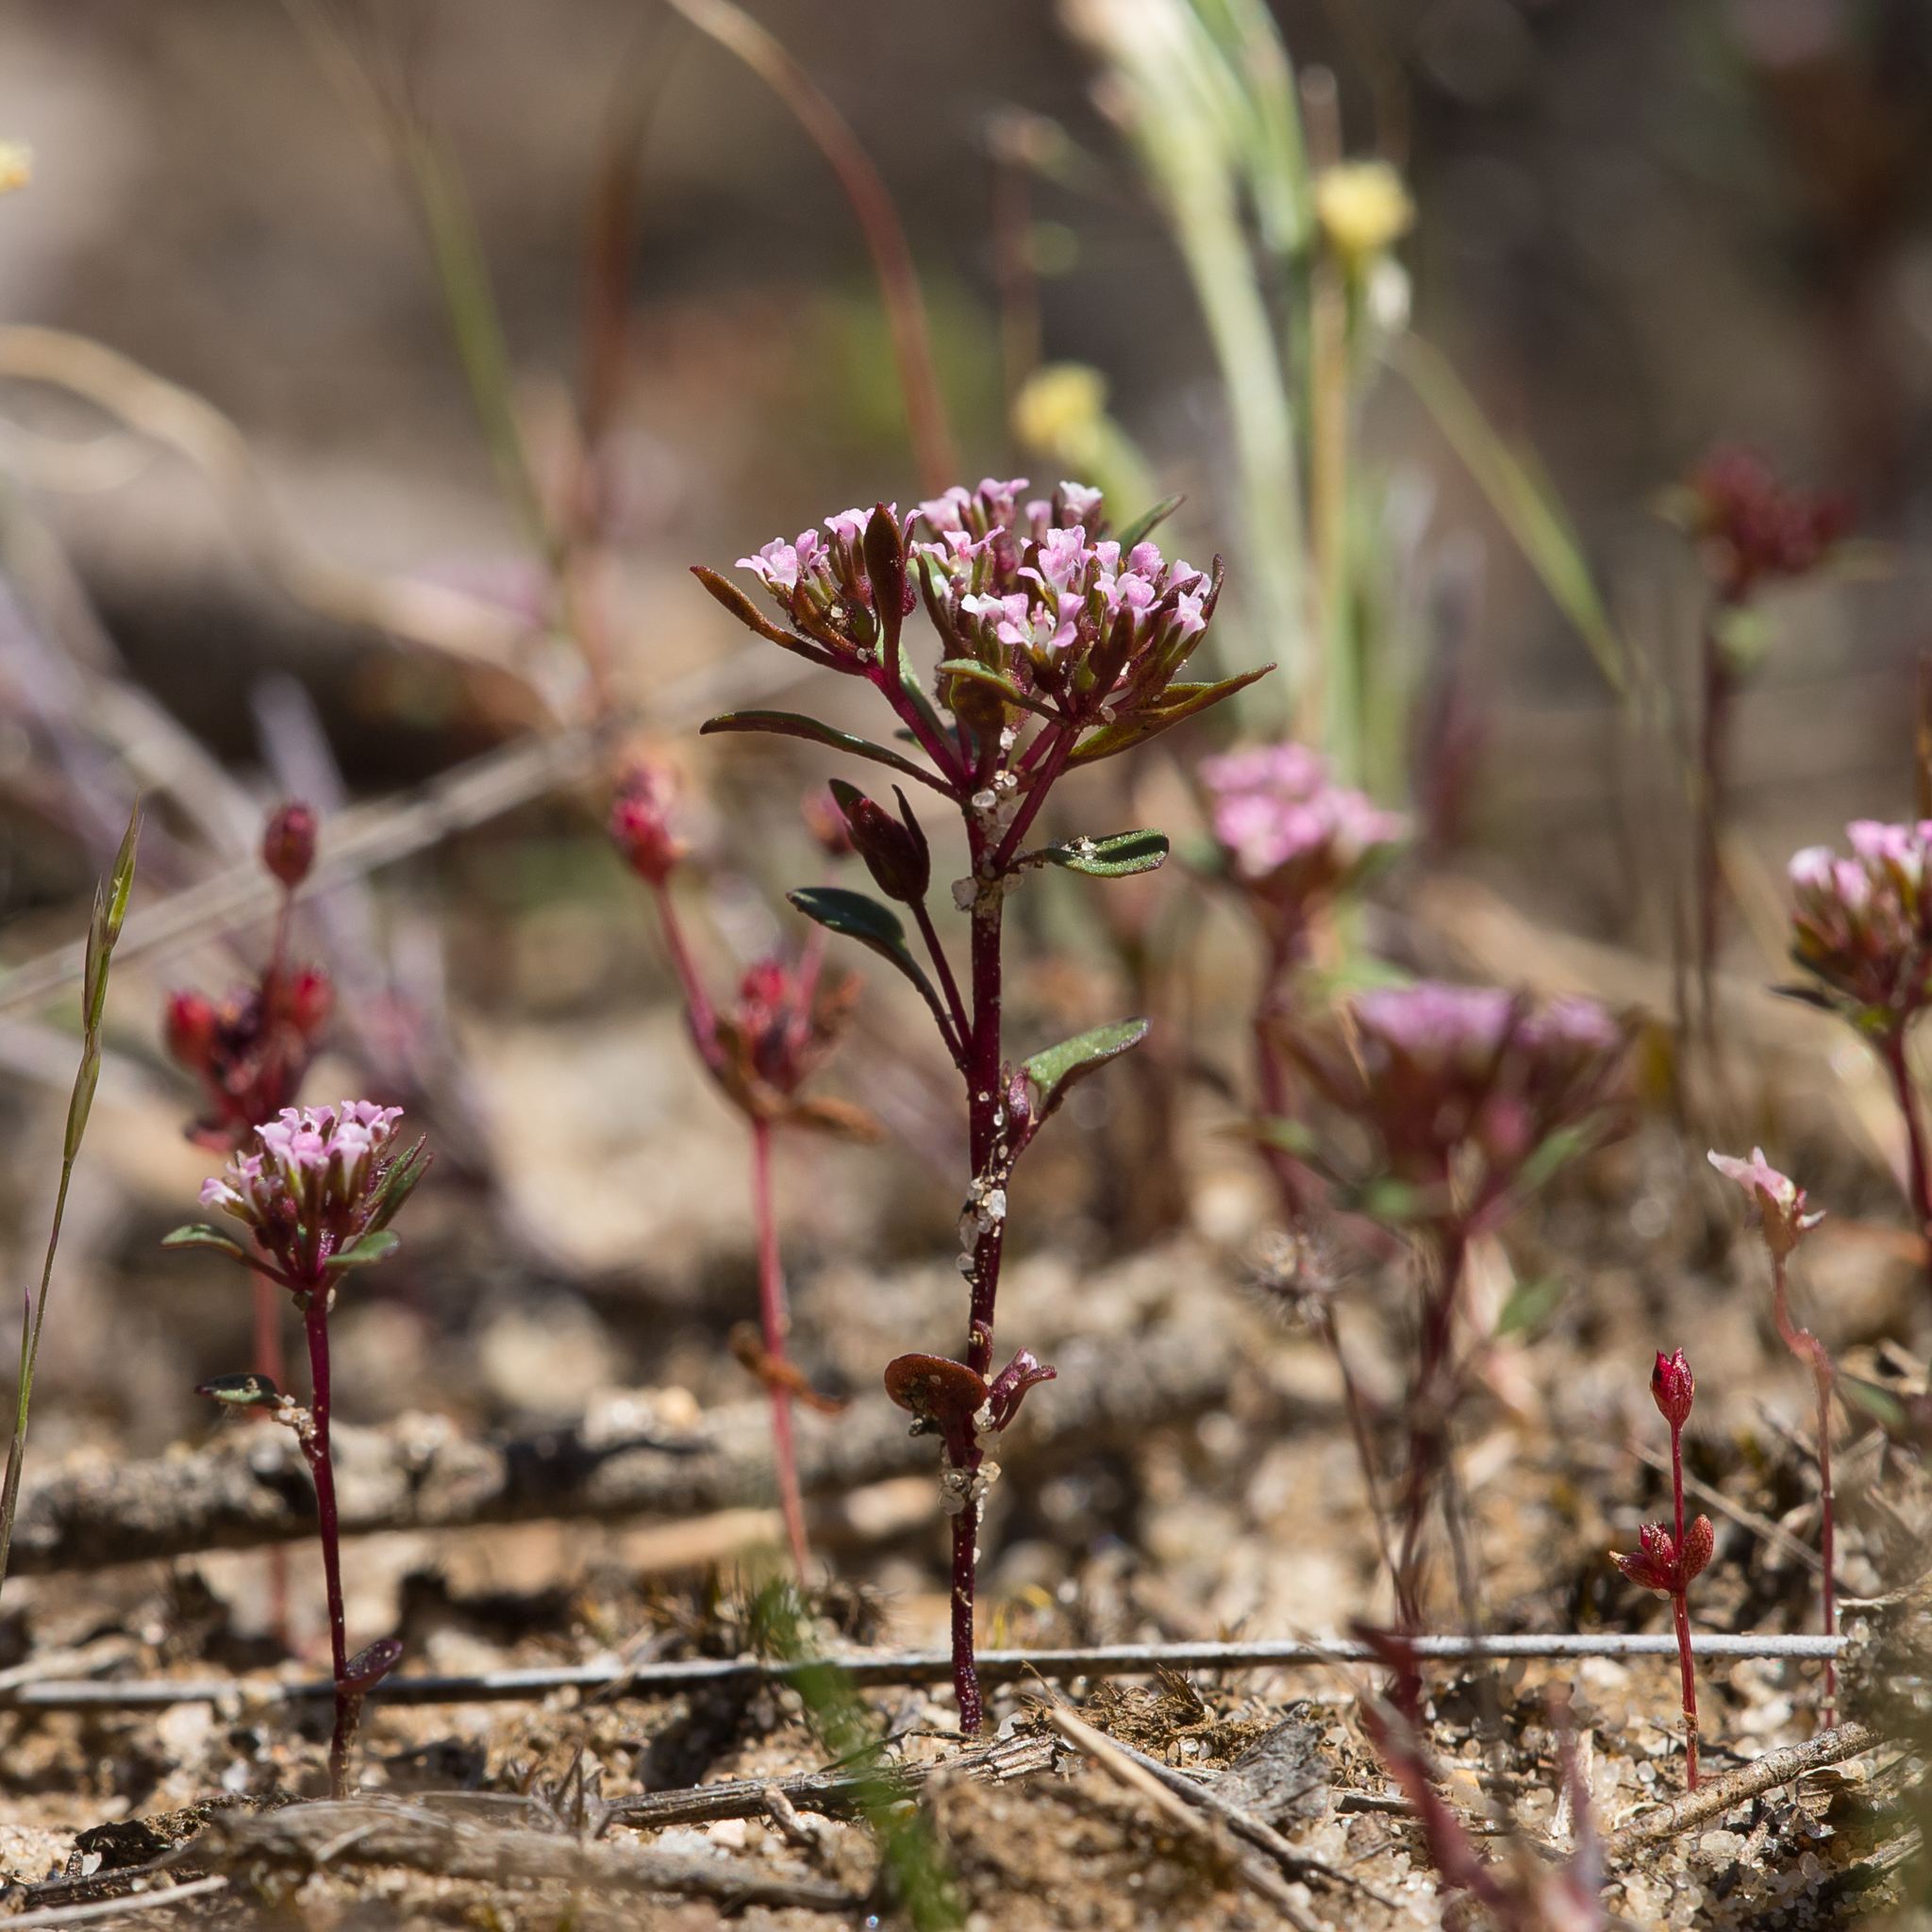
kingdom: Plantae
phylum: Tracheophyta
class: Magnoliopsida
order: Asterales
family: Stylidiaceae
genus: Levenhookia
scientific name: Levenhookia pusilla
